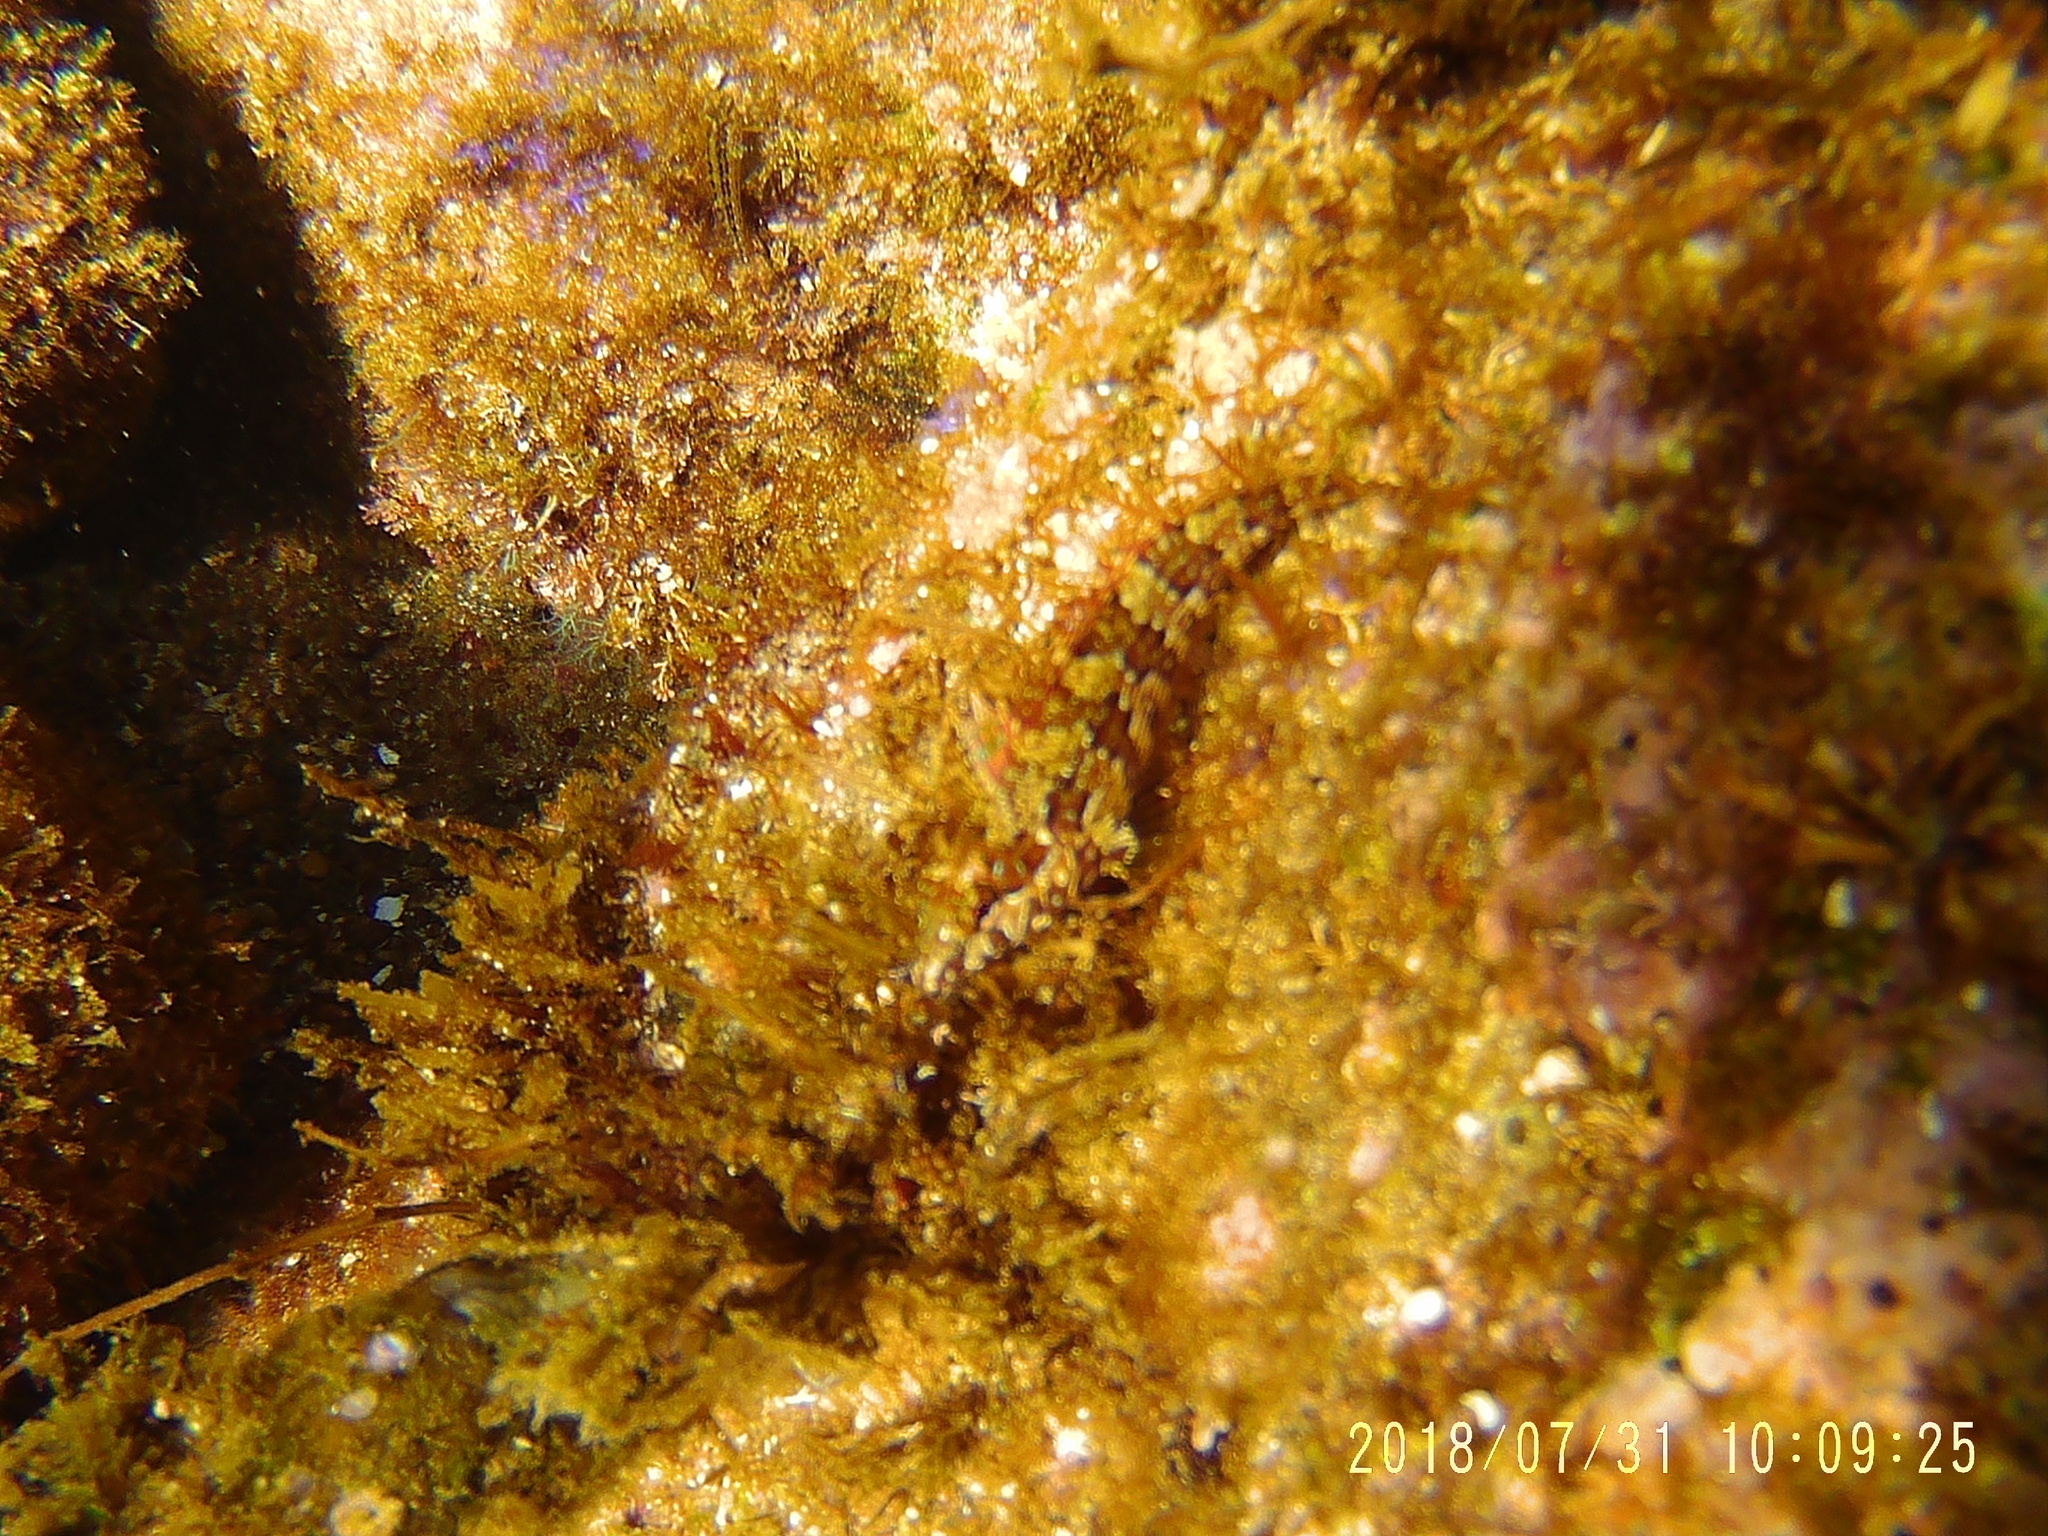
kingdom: Animalia
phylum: Chordata
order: Perciformes
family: Labrisomidae
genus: Malacoctenus
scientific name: Malacoctenus gigas
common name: Sonora blenny
